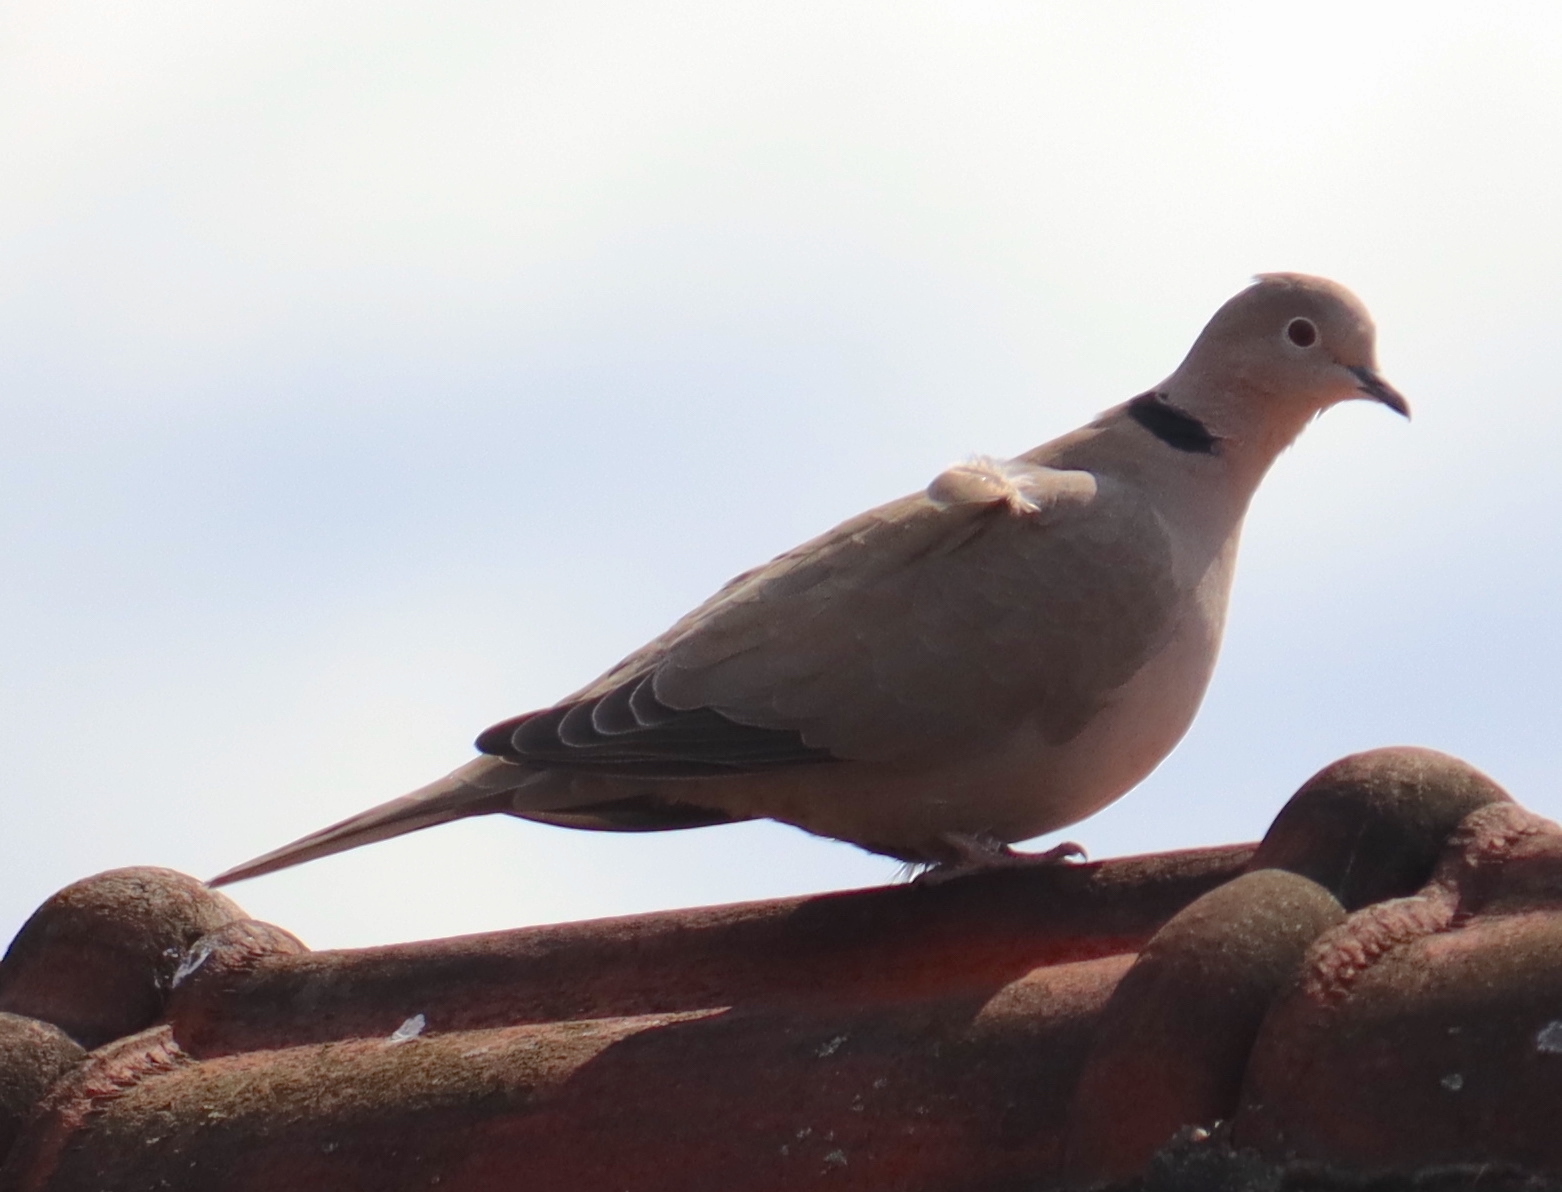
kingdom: Animalia
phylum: Chordata
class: Aves
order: Columbiformes
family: Columbidae
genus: Streptopelia
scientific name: Streptopelia decaocto
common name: Eurasian collared dove
